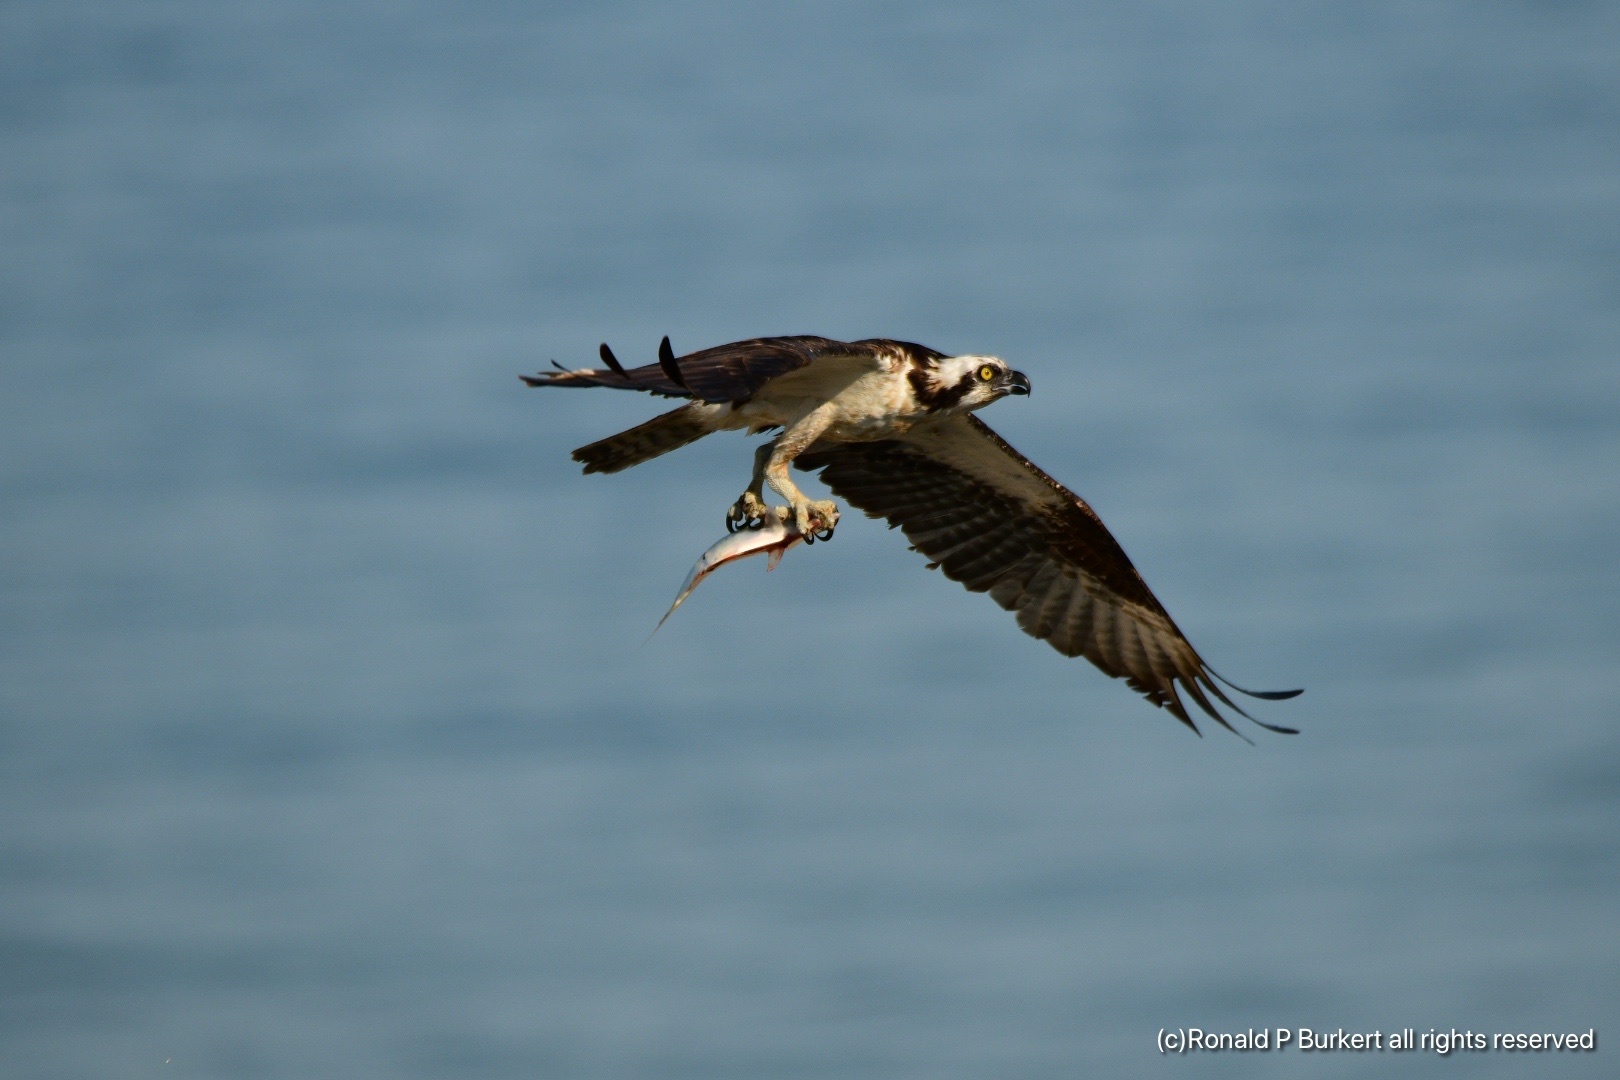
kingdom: Animalia
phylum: Chordata
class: Aves
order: Accipitriformes
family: Pandionidae
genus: Pandion
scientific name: Pandion haliaetus
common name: Osprey
